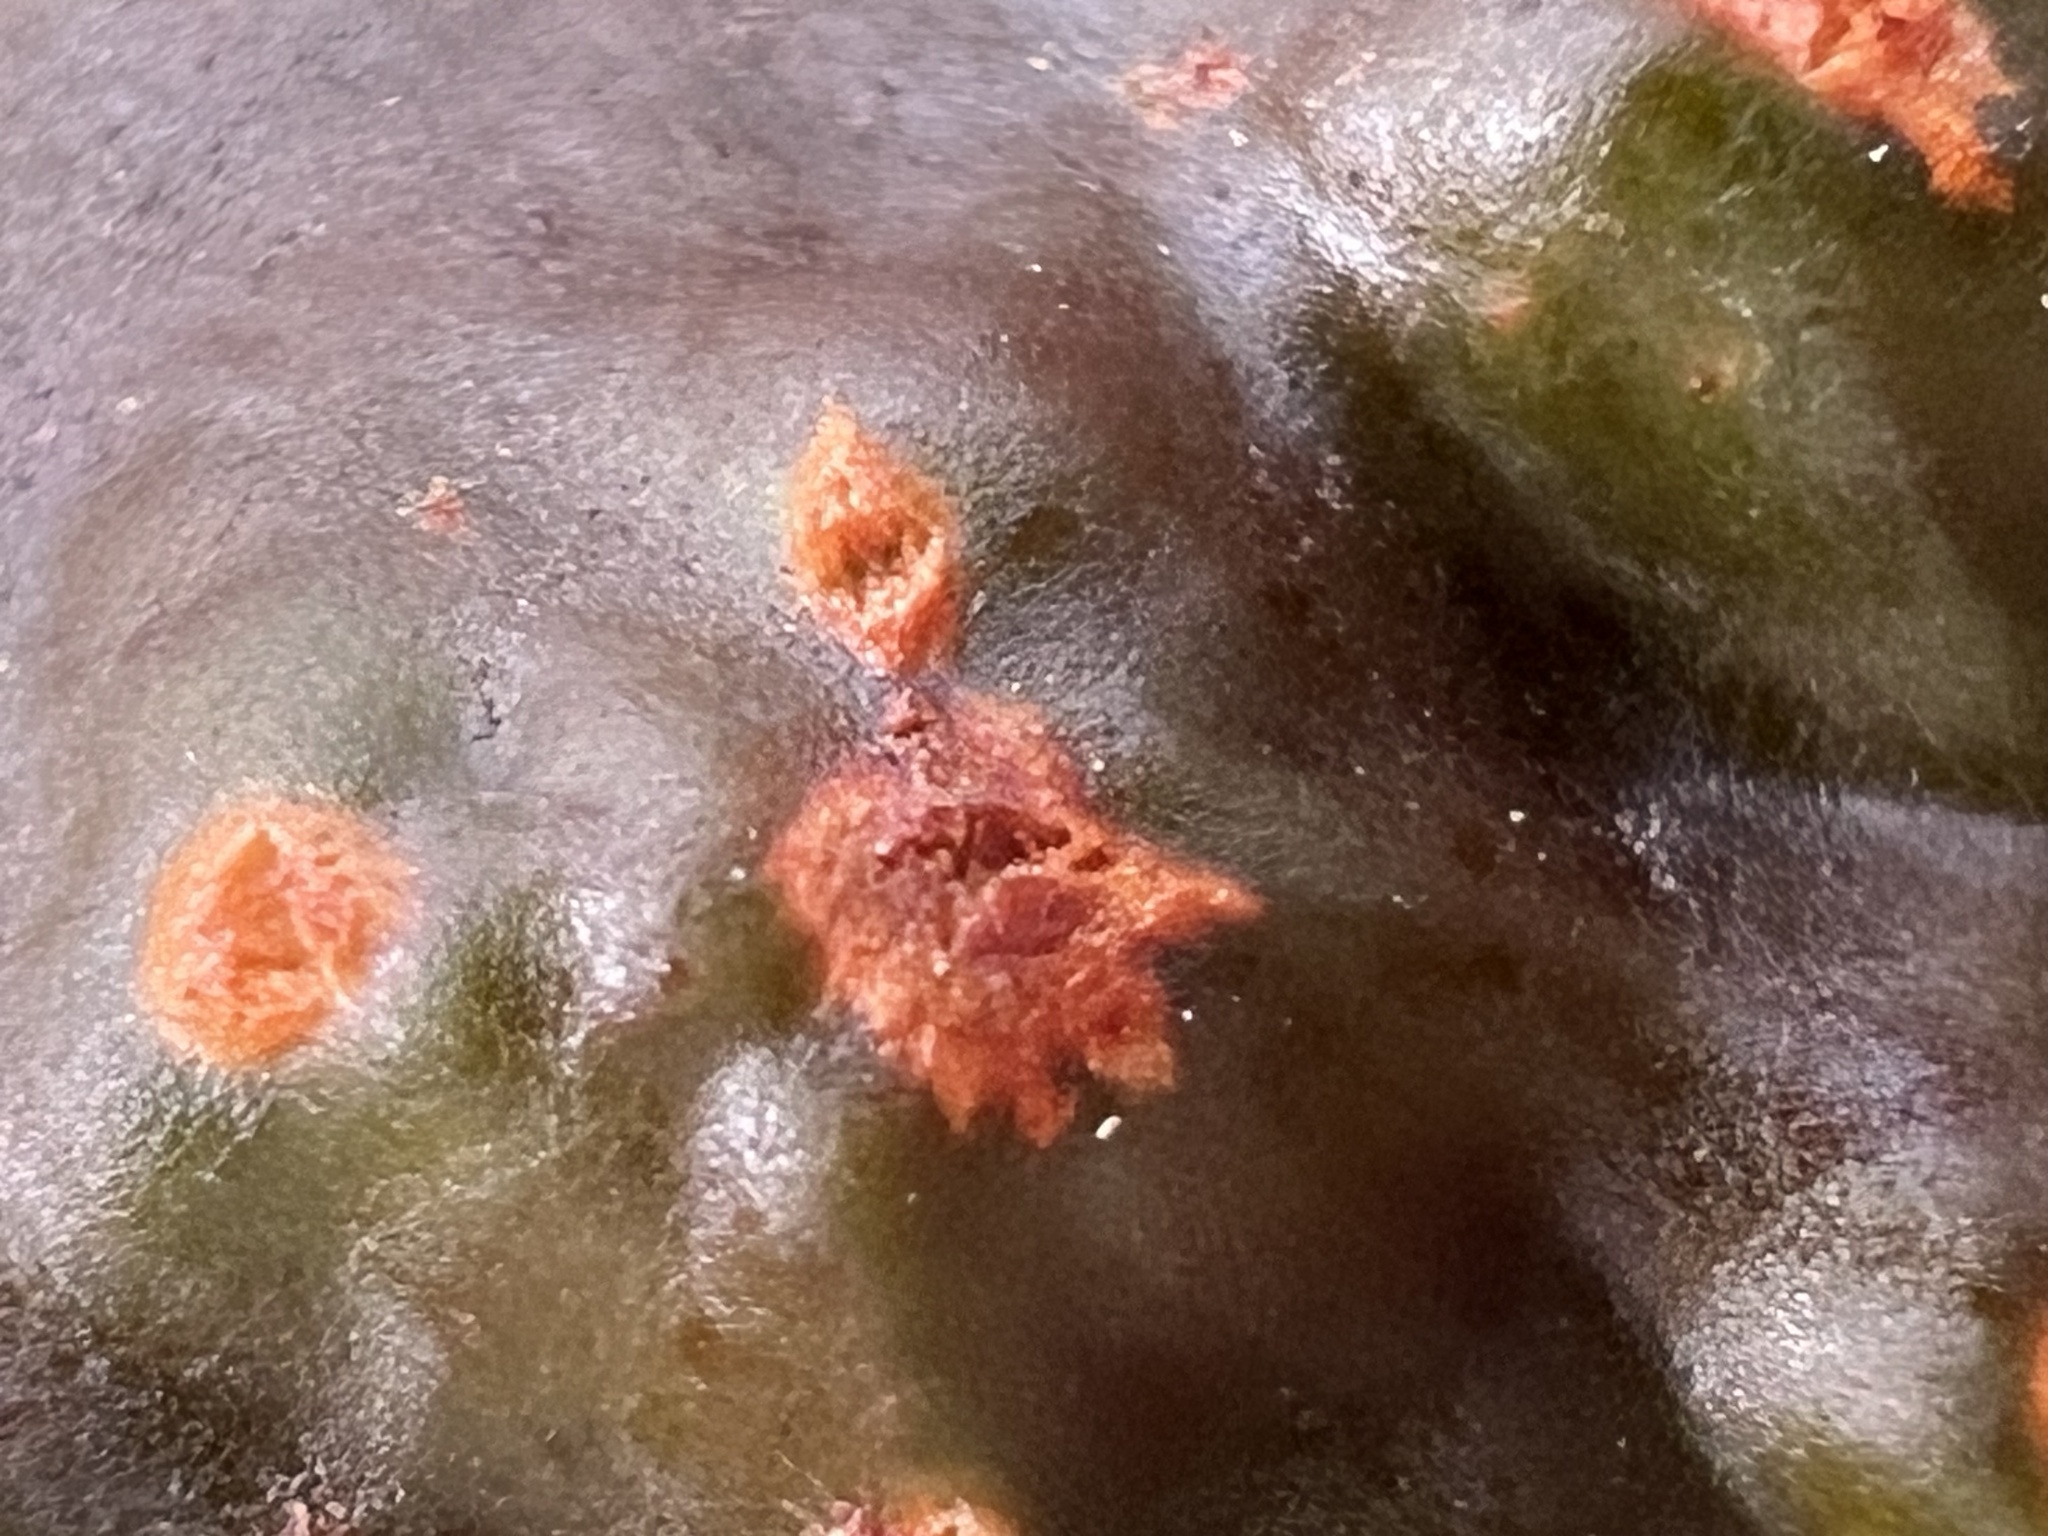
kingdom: Plantae
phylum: Tracheophyta
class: Magnoliopsida
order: Proteales
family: Proteaceae
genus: Hakea
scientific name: Hakea pachyphylla
